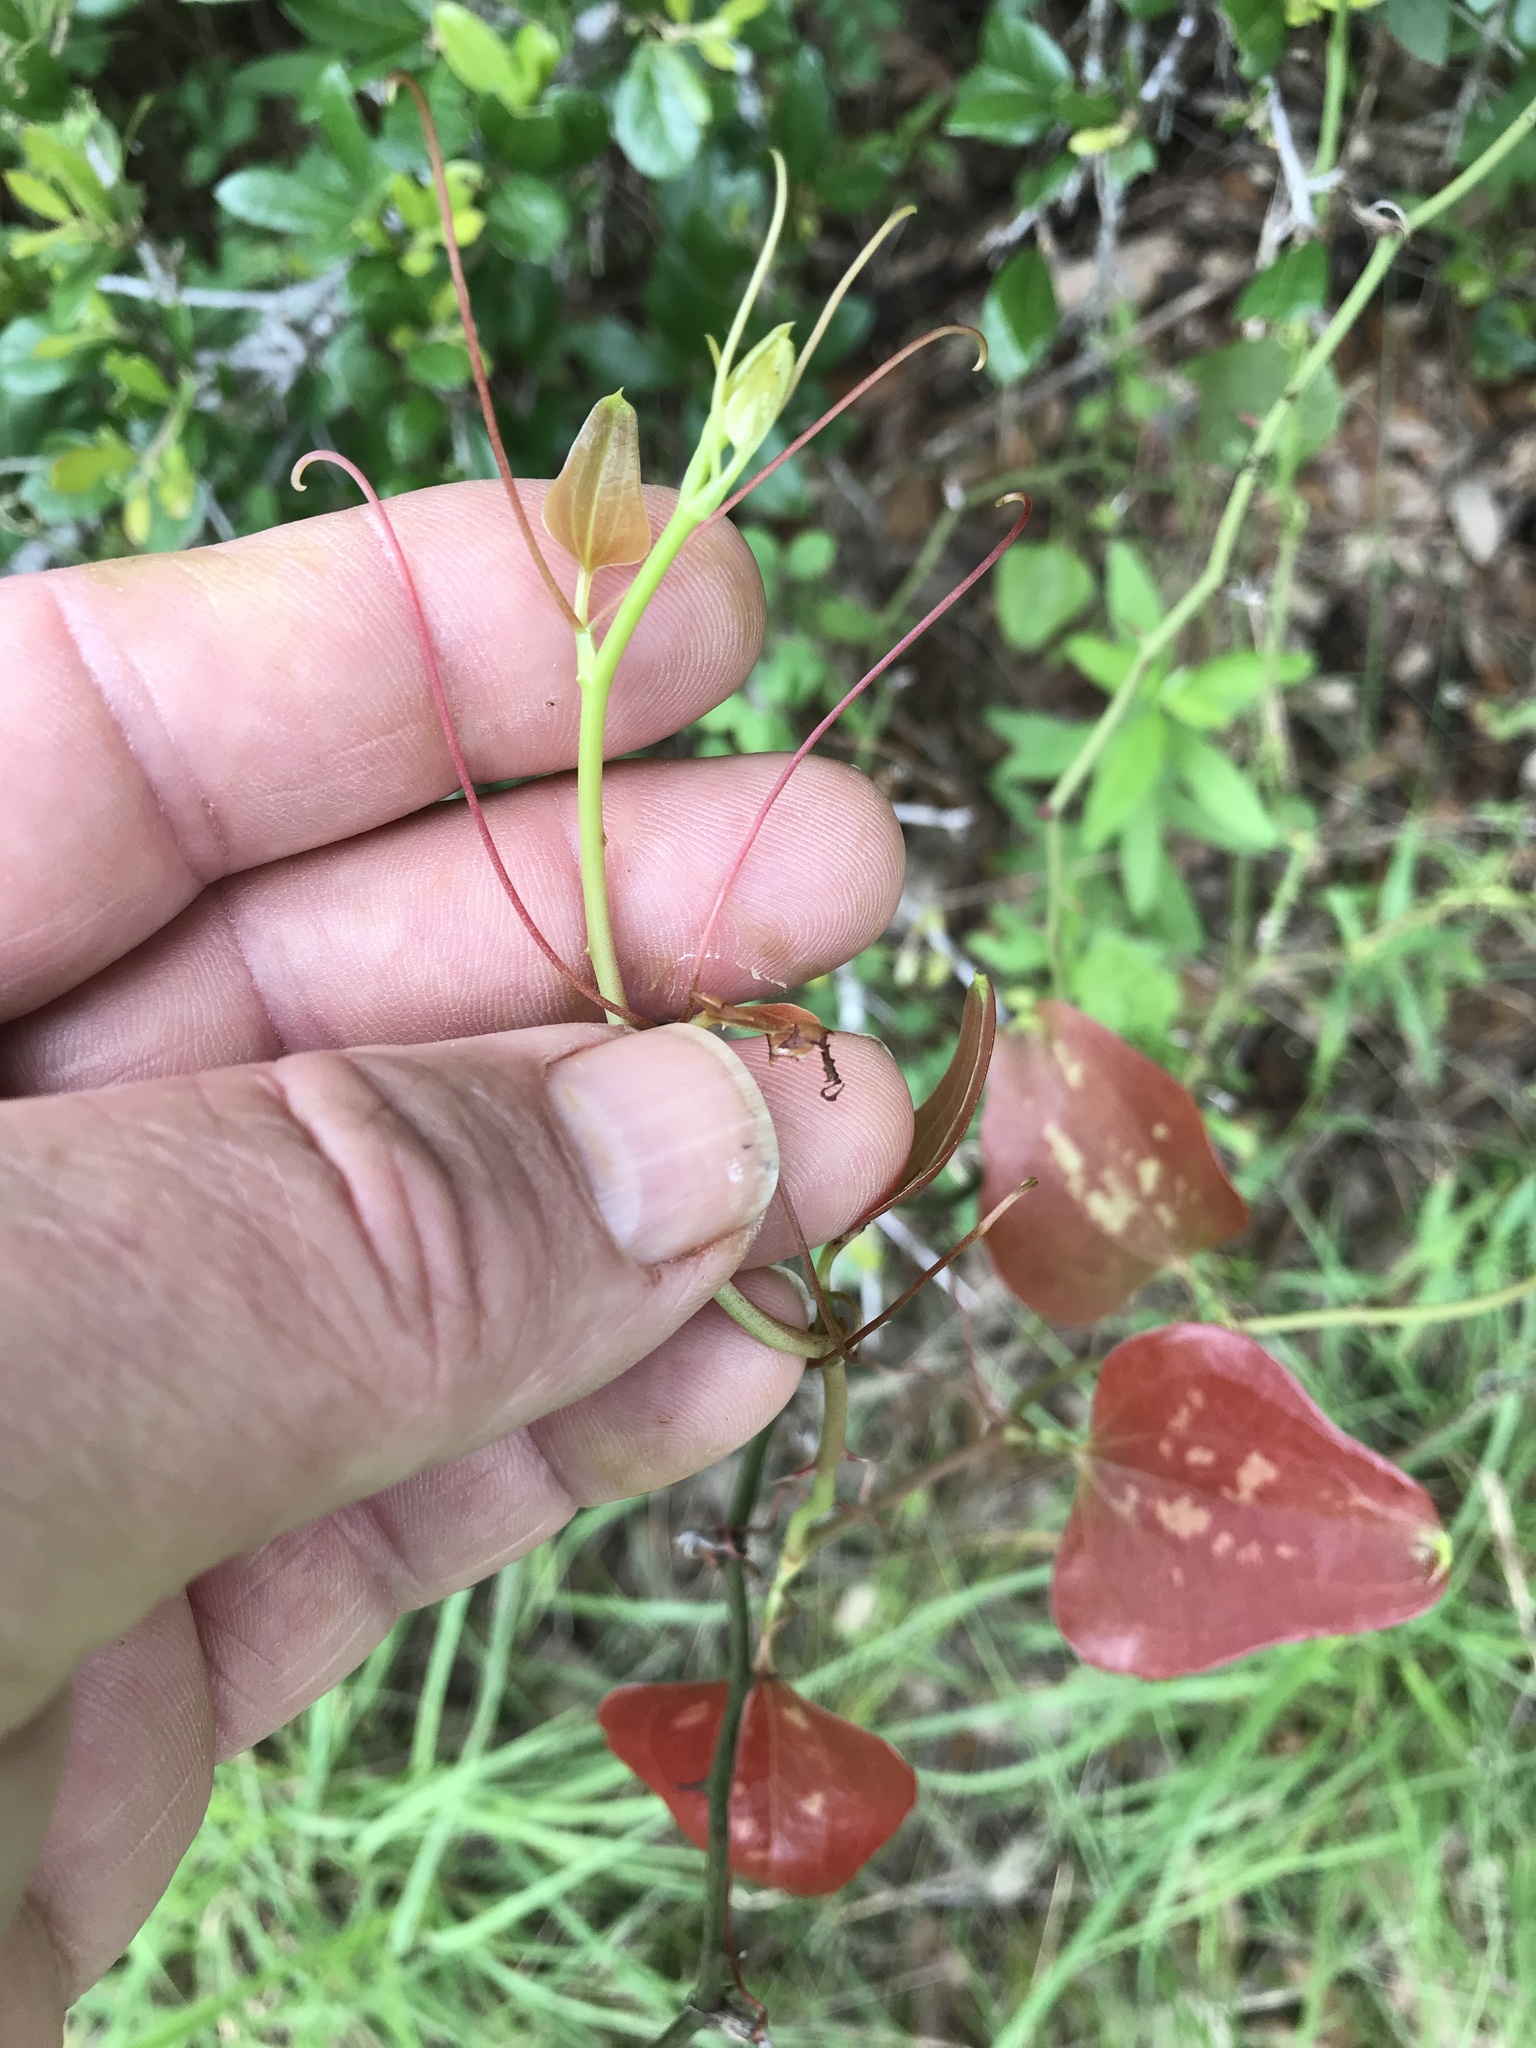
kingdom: Plantae
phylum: Tracheophyta
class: Liliopsida
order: Liliales
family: Smilacaceae
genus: Smilax
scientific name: Smilax bona-nox
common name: Catbrier
